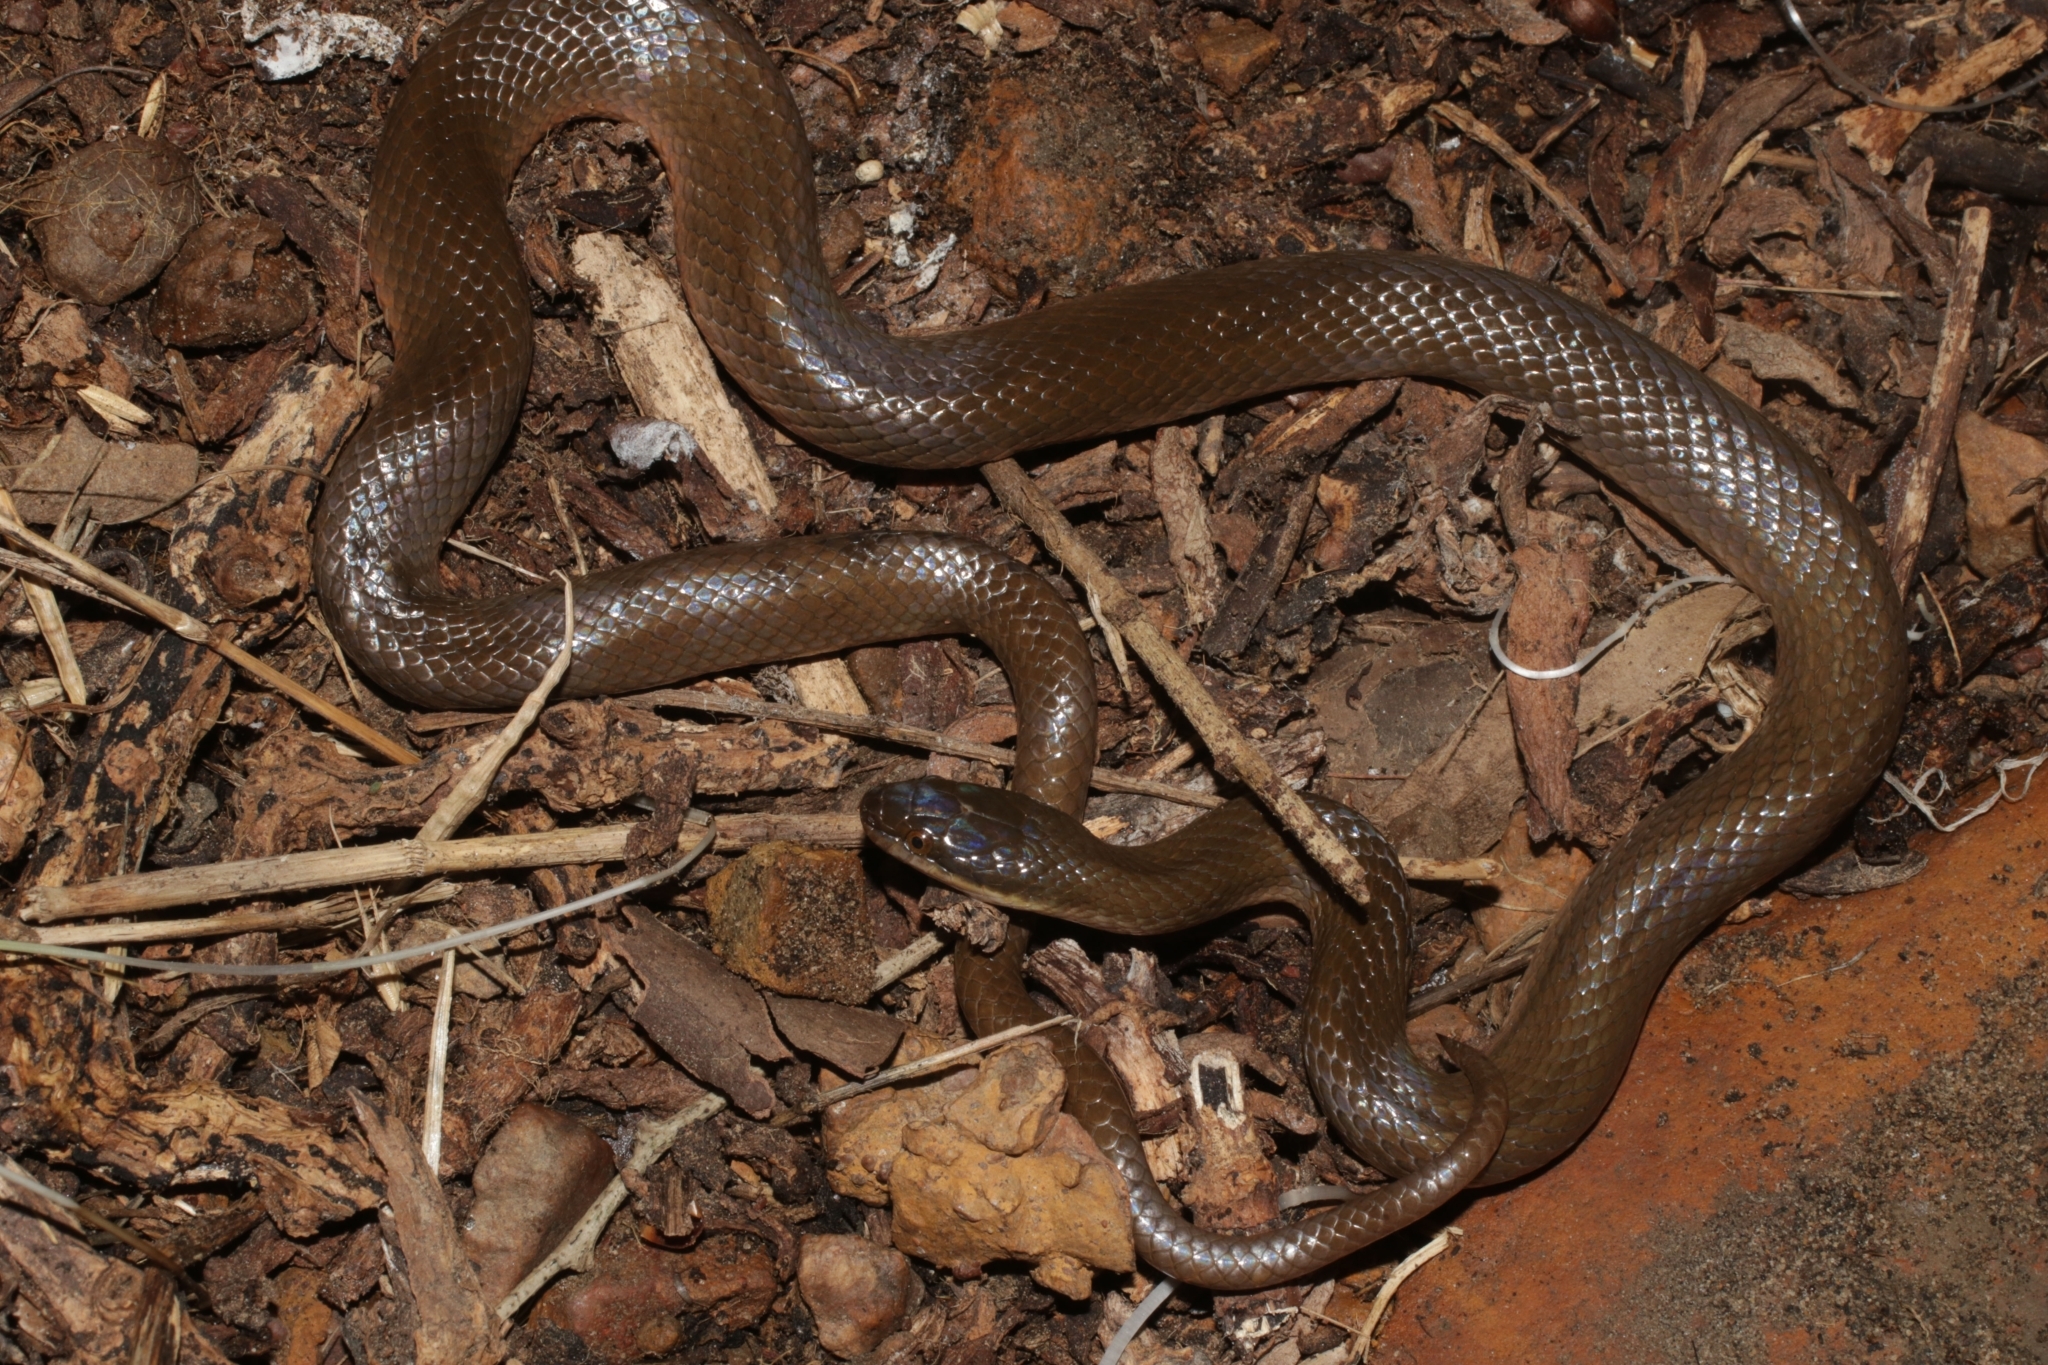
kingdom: Animalia
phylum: Chordata
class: Squamata
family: Lamprophiidae
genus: Lycodonomorphus
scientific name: Lycodonomorphus rufulus
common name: Brown water snake
